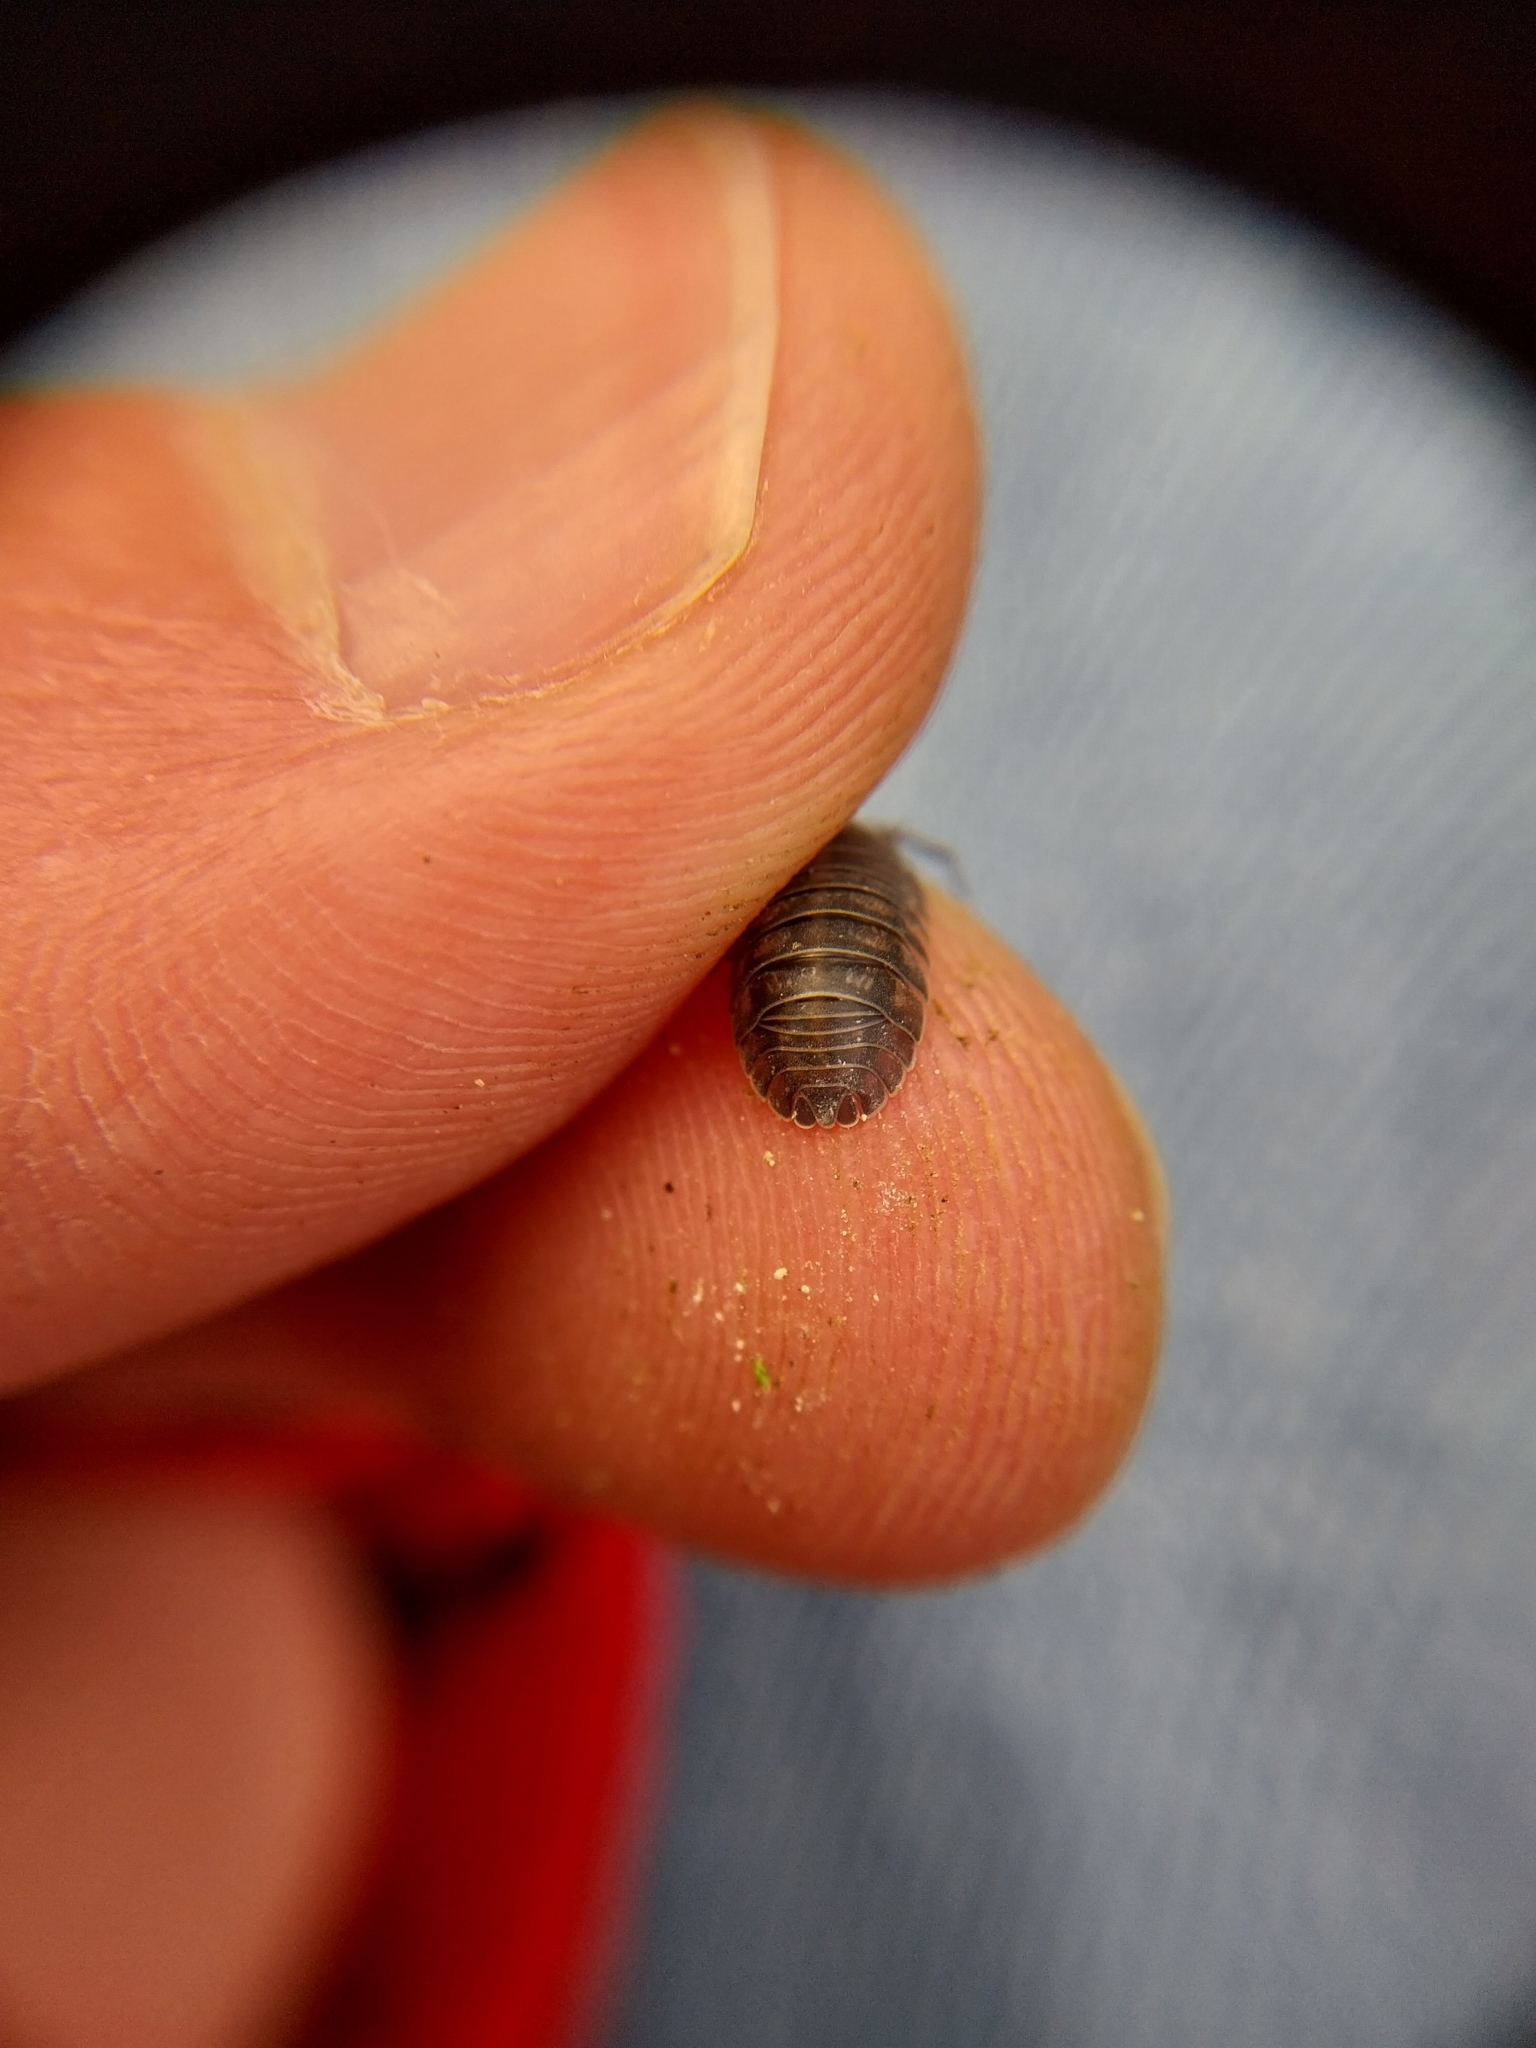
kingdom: Animalia
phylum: Arthropoda
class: Malacostraca
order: Isopoda
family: Armadillidiidae
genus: Armadillidium
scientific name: Armadillidium nasatum
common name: Isopod
